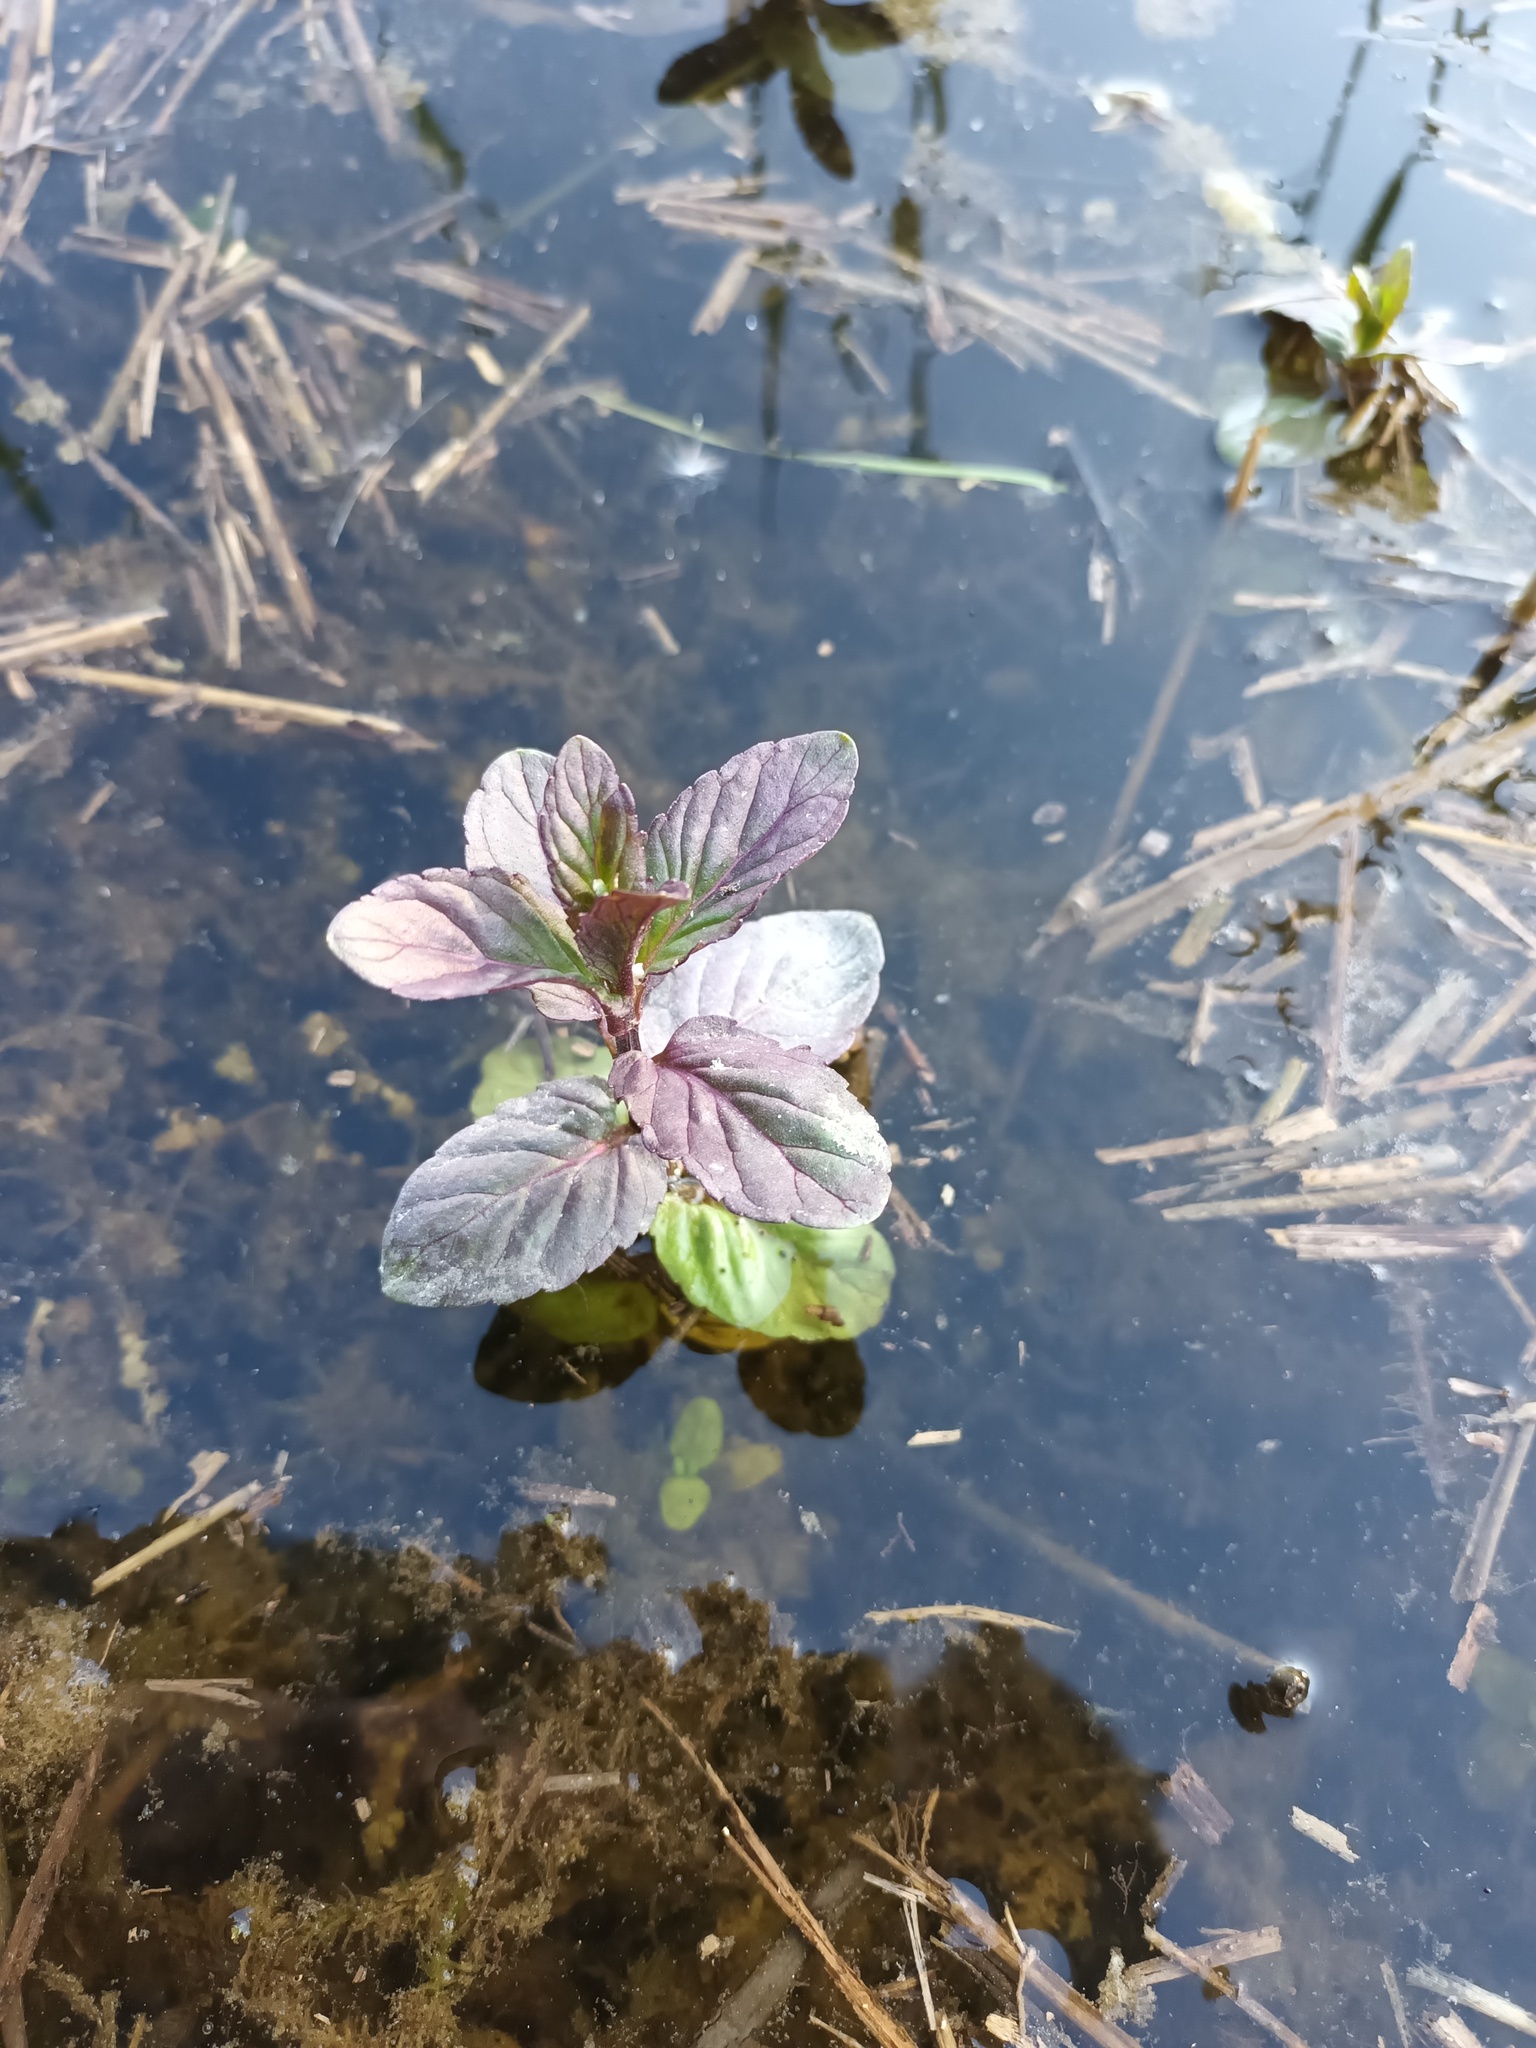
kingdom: Plantae
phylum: Tracheophyta
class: Magnoliopsida
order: Lamiales
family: Lamiaceae
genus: Mentha
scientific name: Mentha aquatica
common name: Water mint
